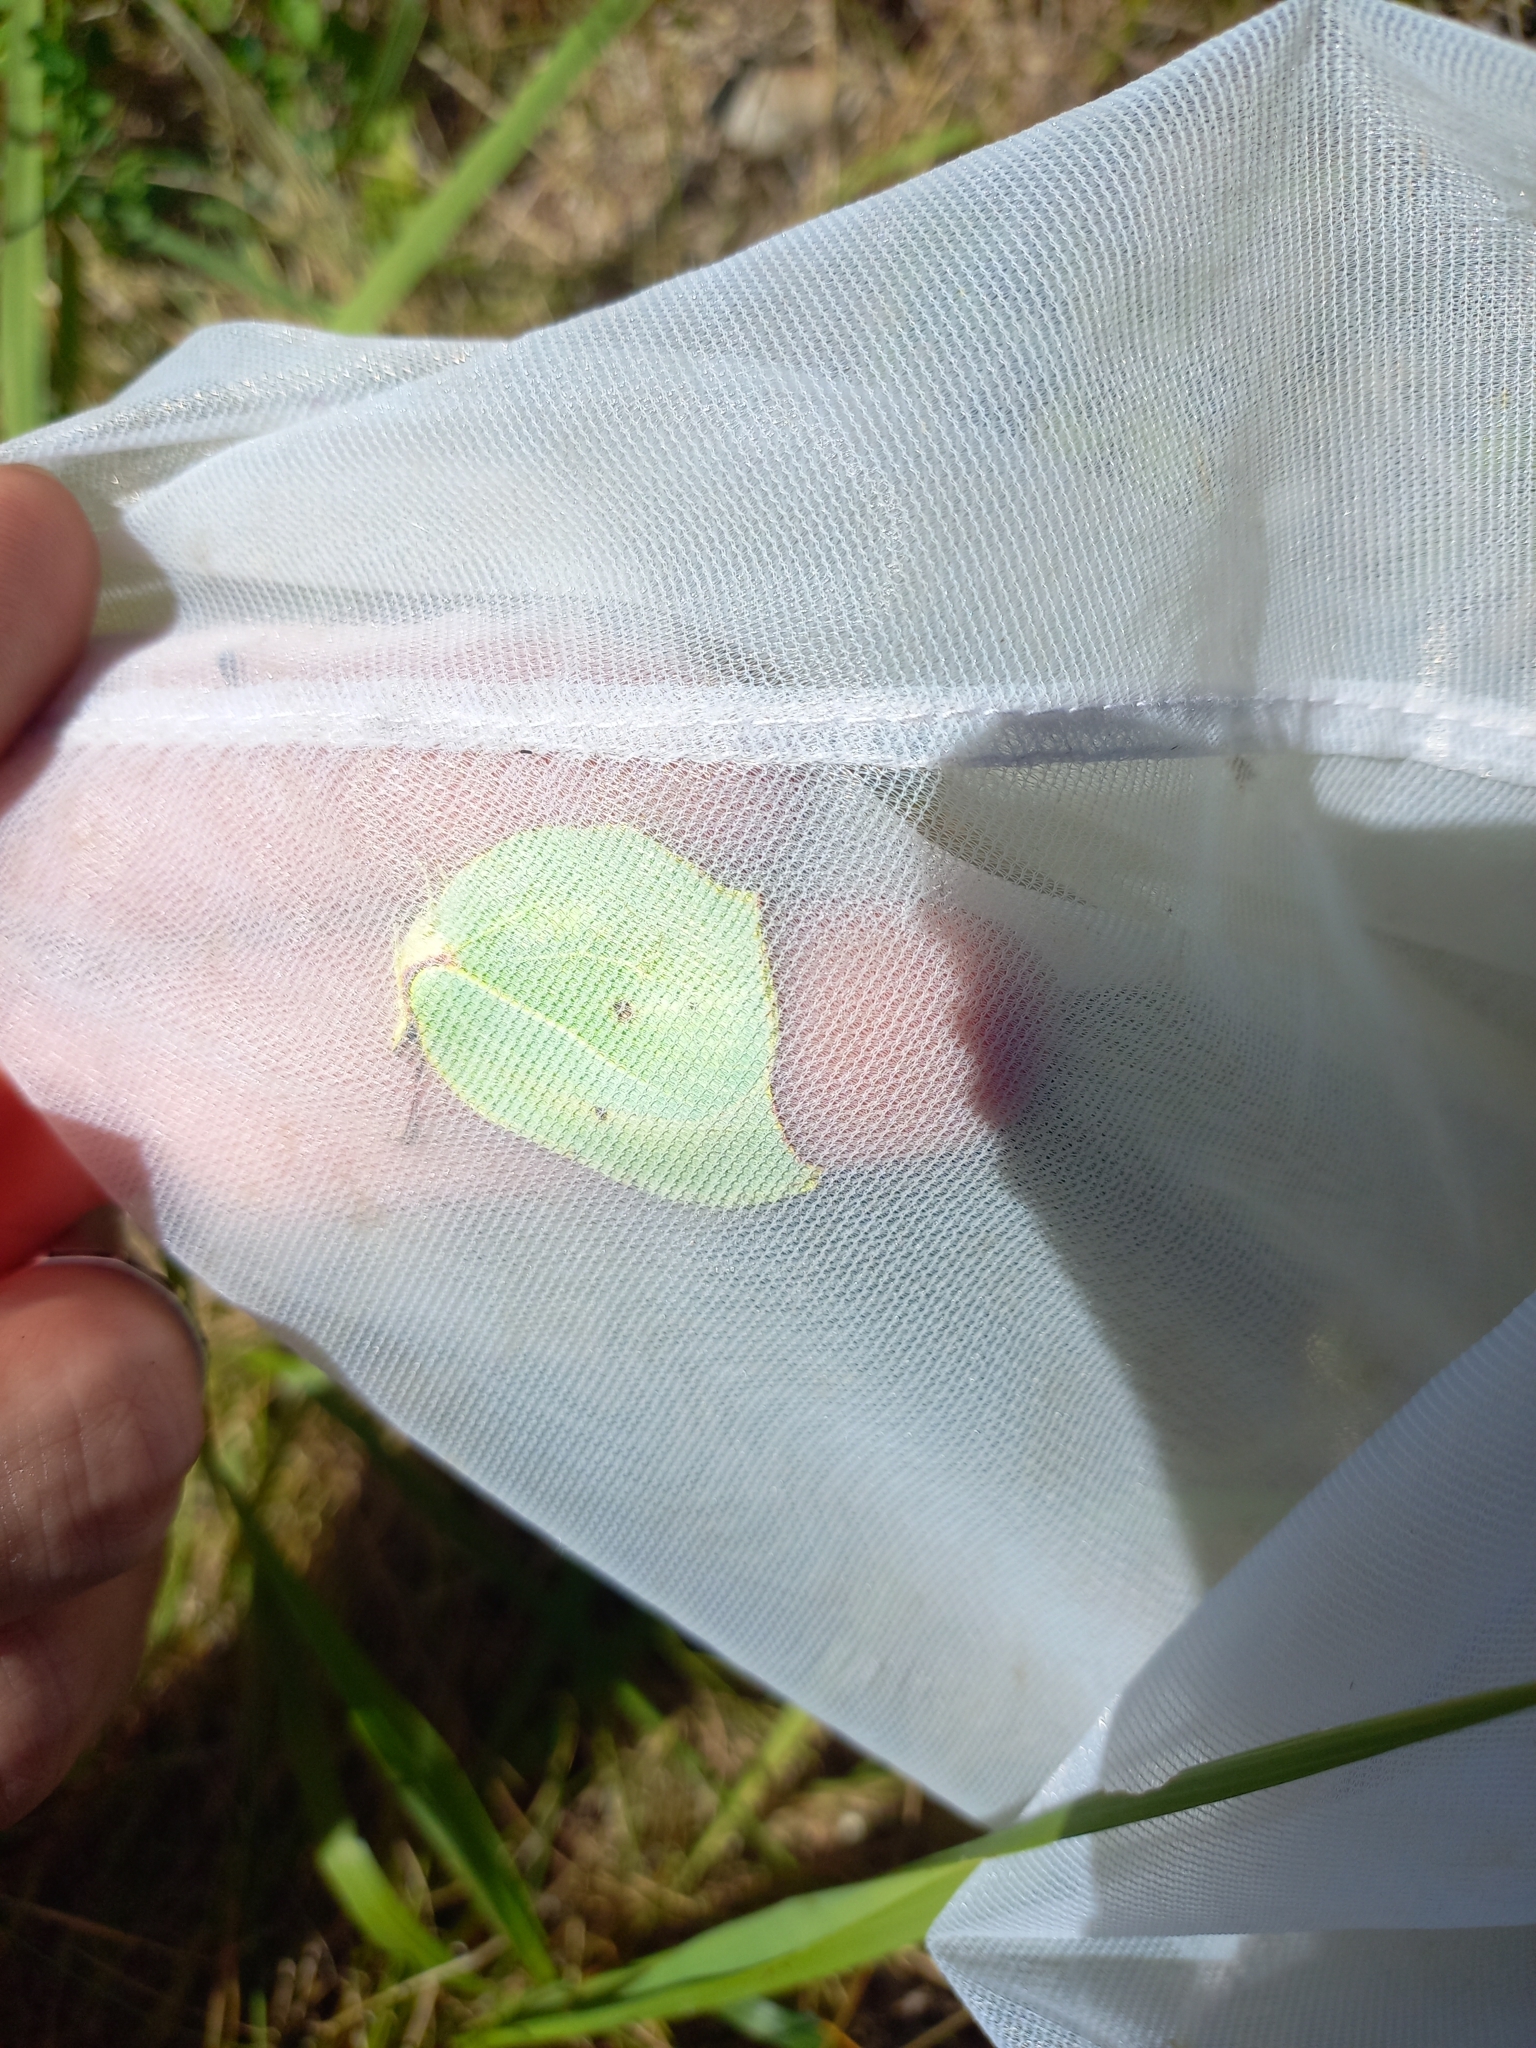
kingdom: Animalia
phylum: Arthropoda
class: Insecta
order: Lepidoptera
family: Pieridae
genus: Gonepteryx
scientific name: Gonepteryx rhamni
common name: Brimstone
